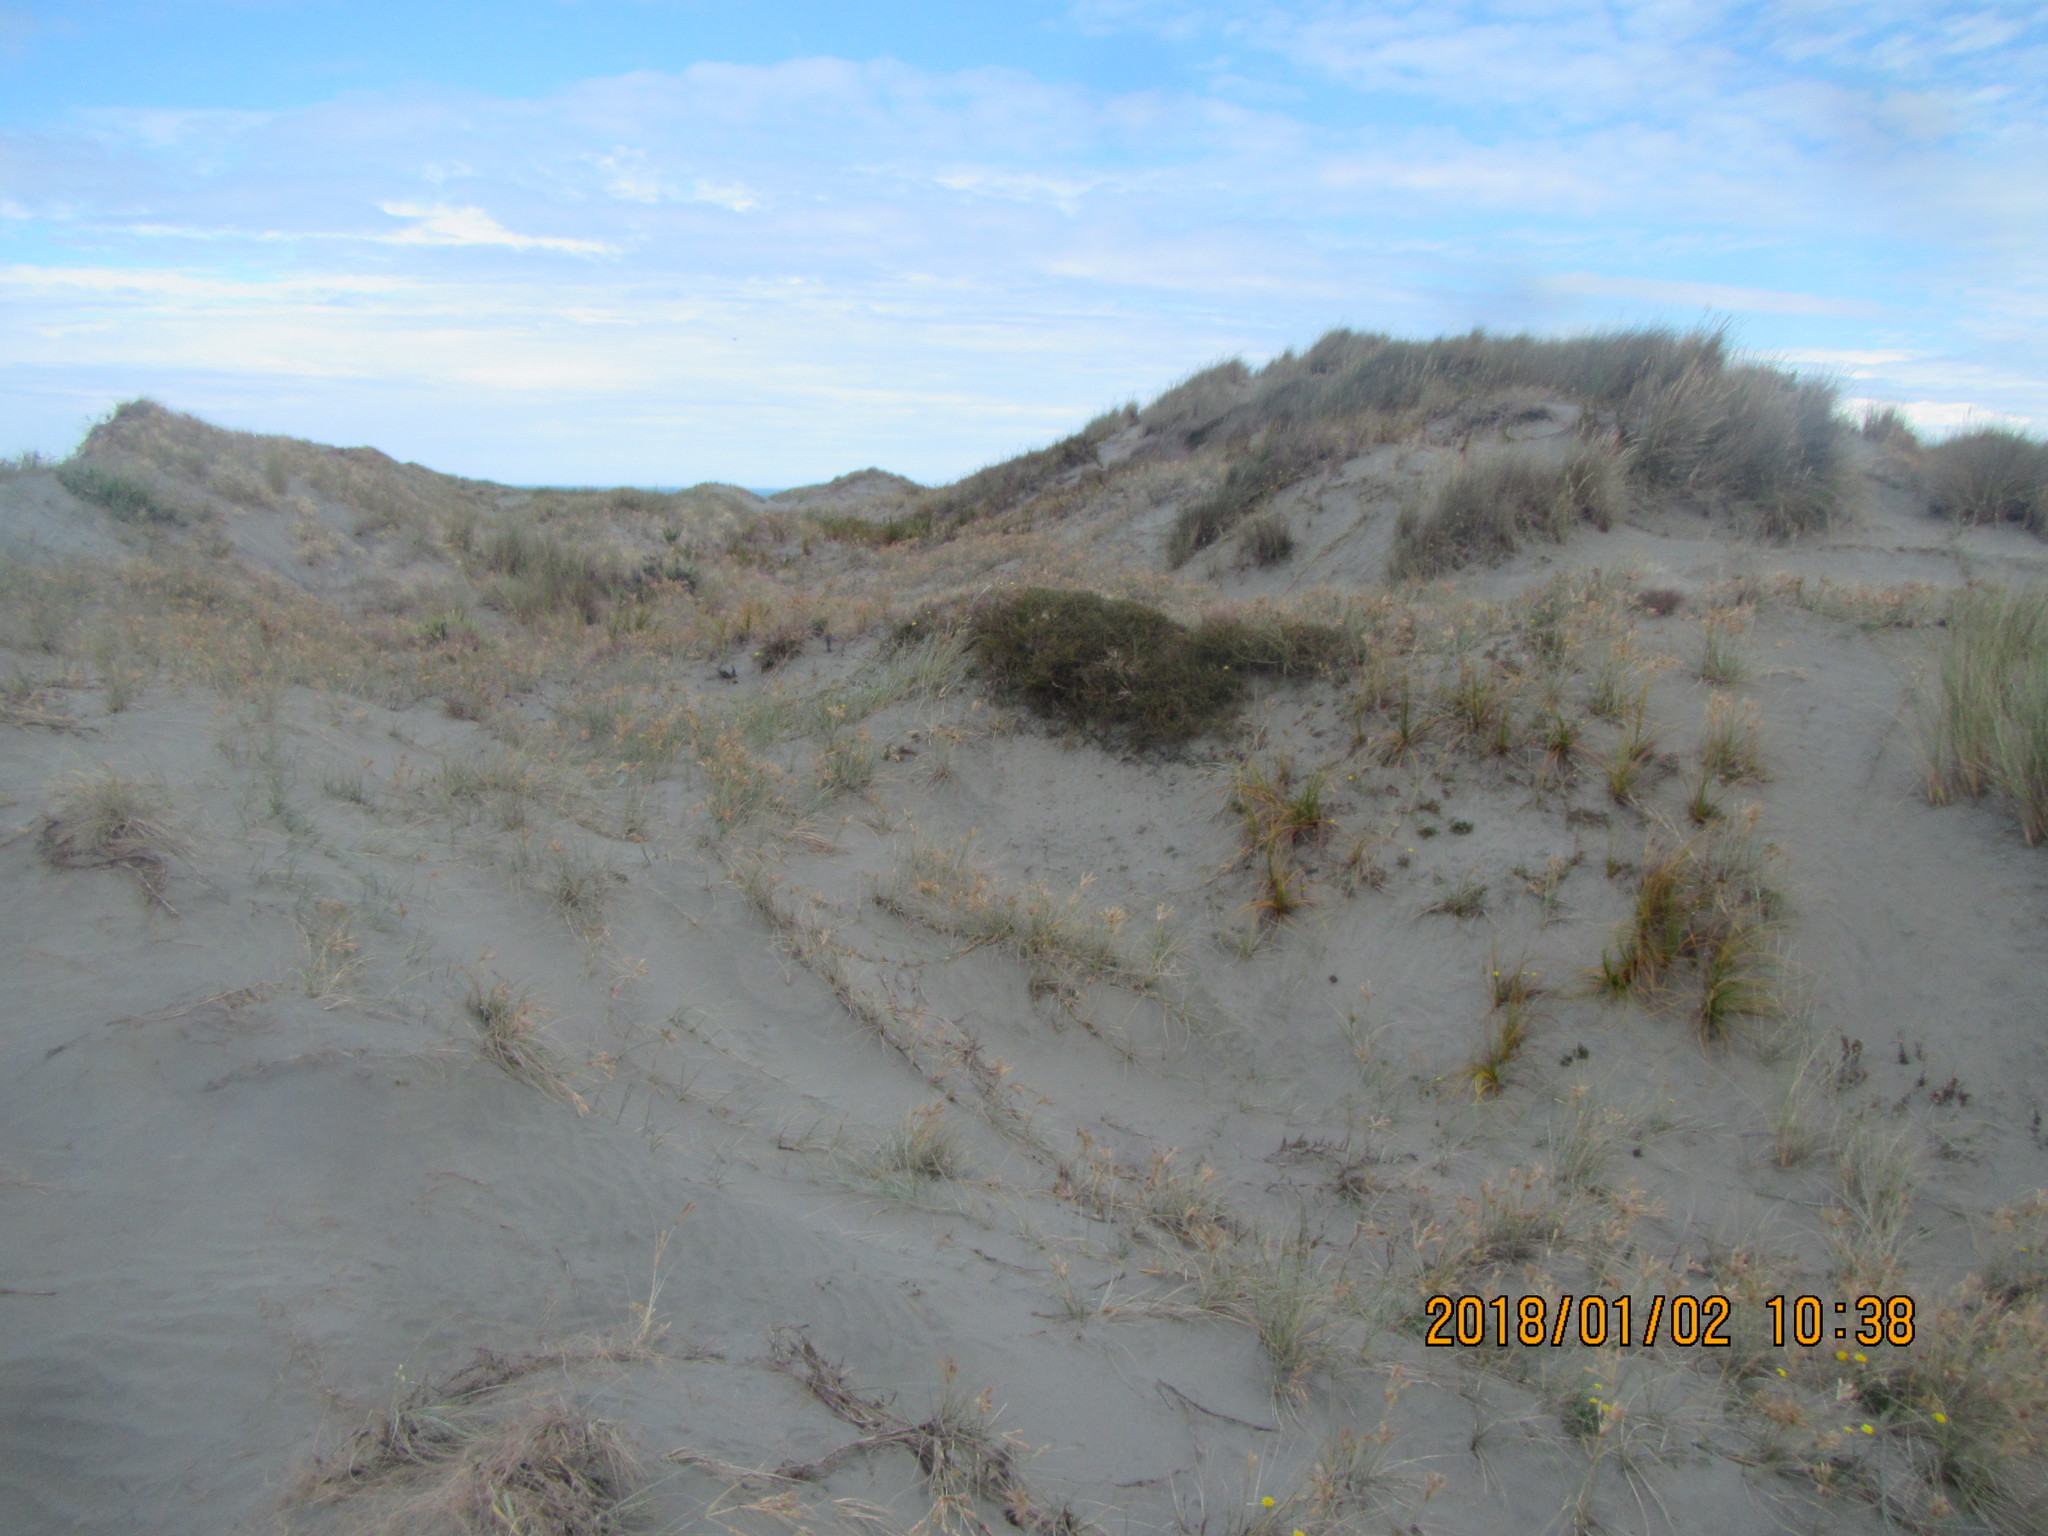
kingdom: Plantae
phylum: Tracheophyta
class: Liliopsida
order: Poales
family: Cyperaceae
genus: Ficinia
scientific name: Ficinia spiralis
